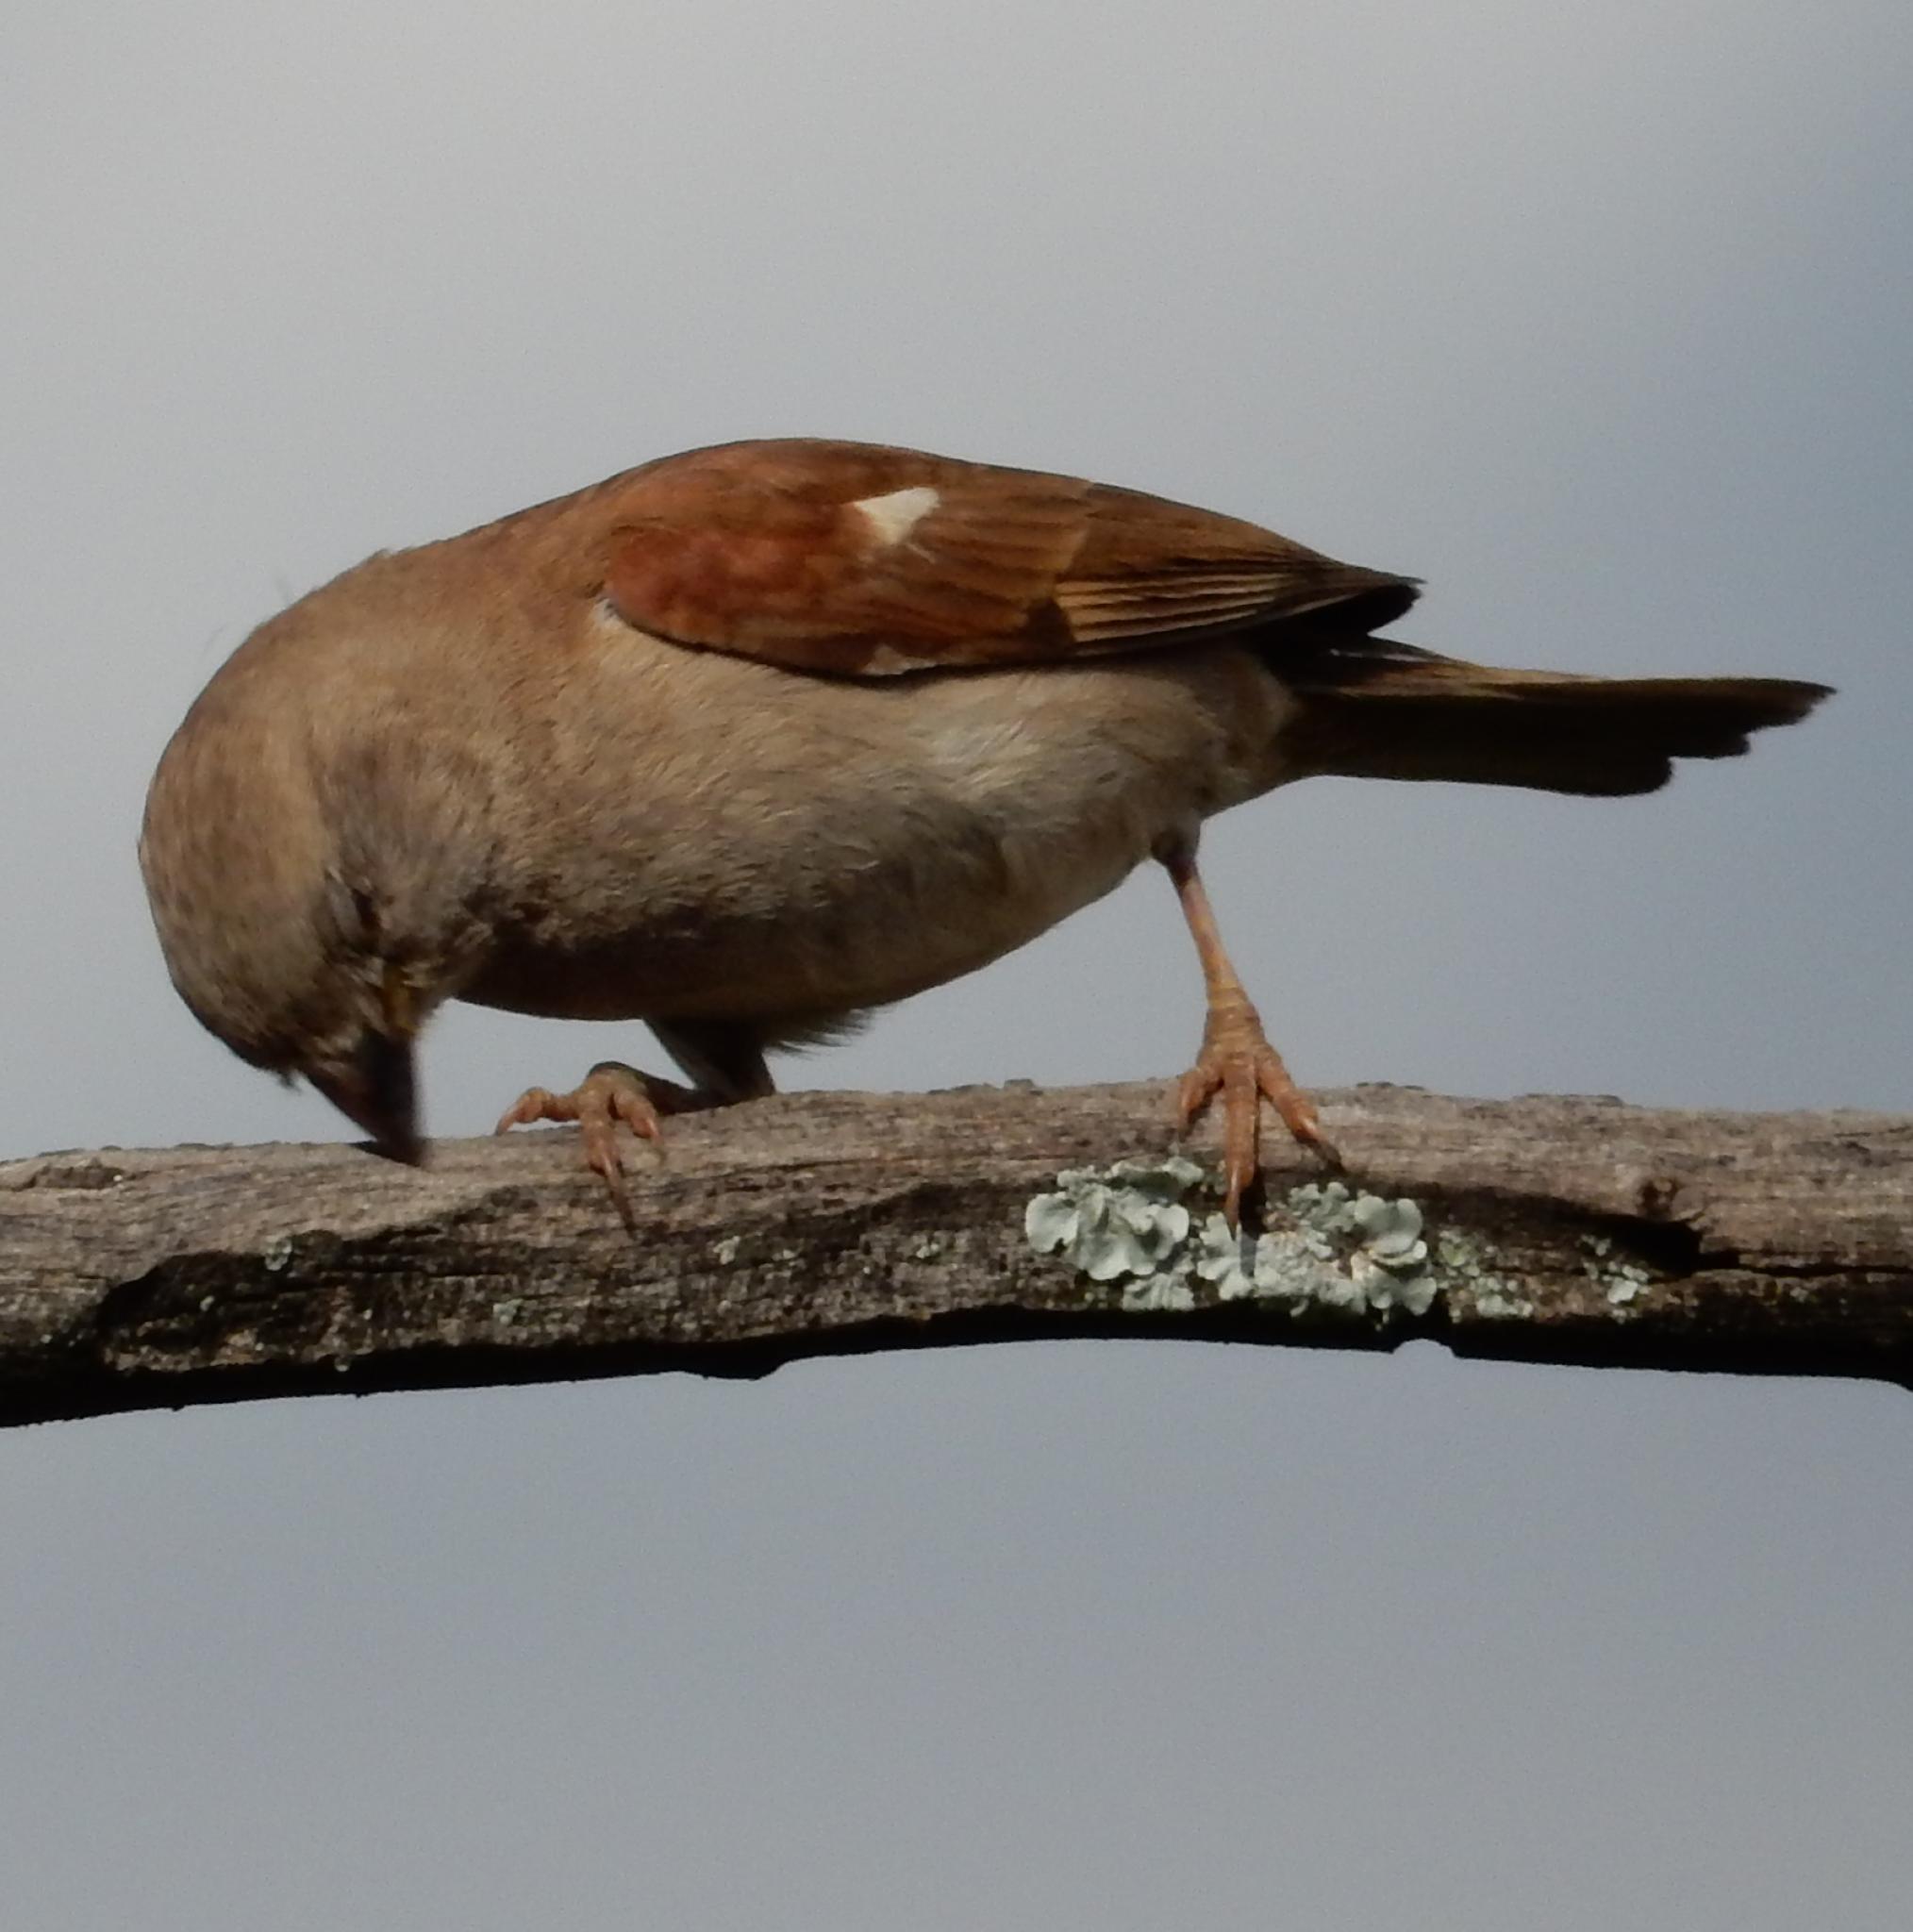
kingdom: Animalia
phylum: Chordata
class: Aves
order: Passeriformes
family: Passeridae
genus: Passer
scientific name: Passer diffusus
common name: Southern grey-headed sparrow
